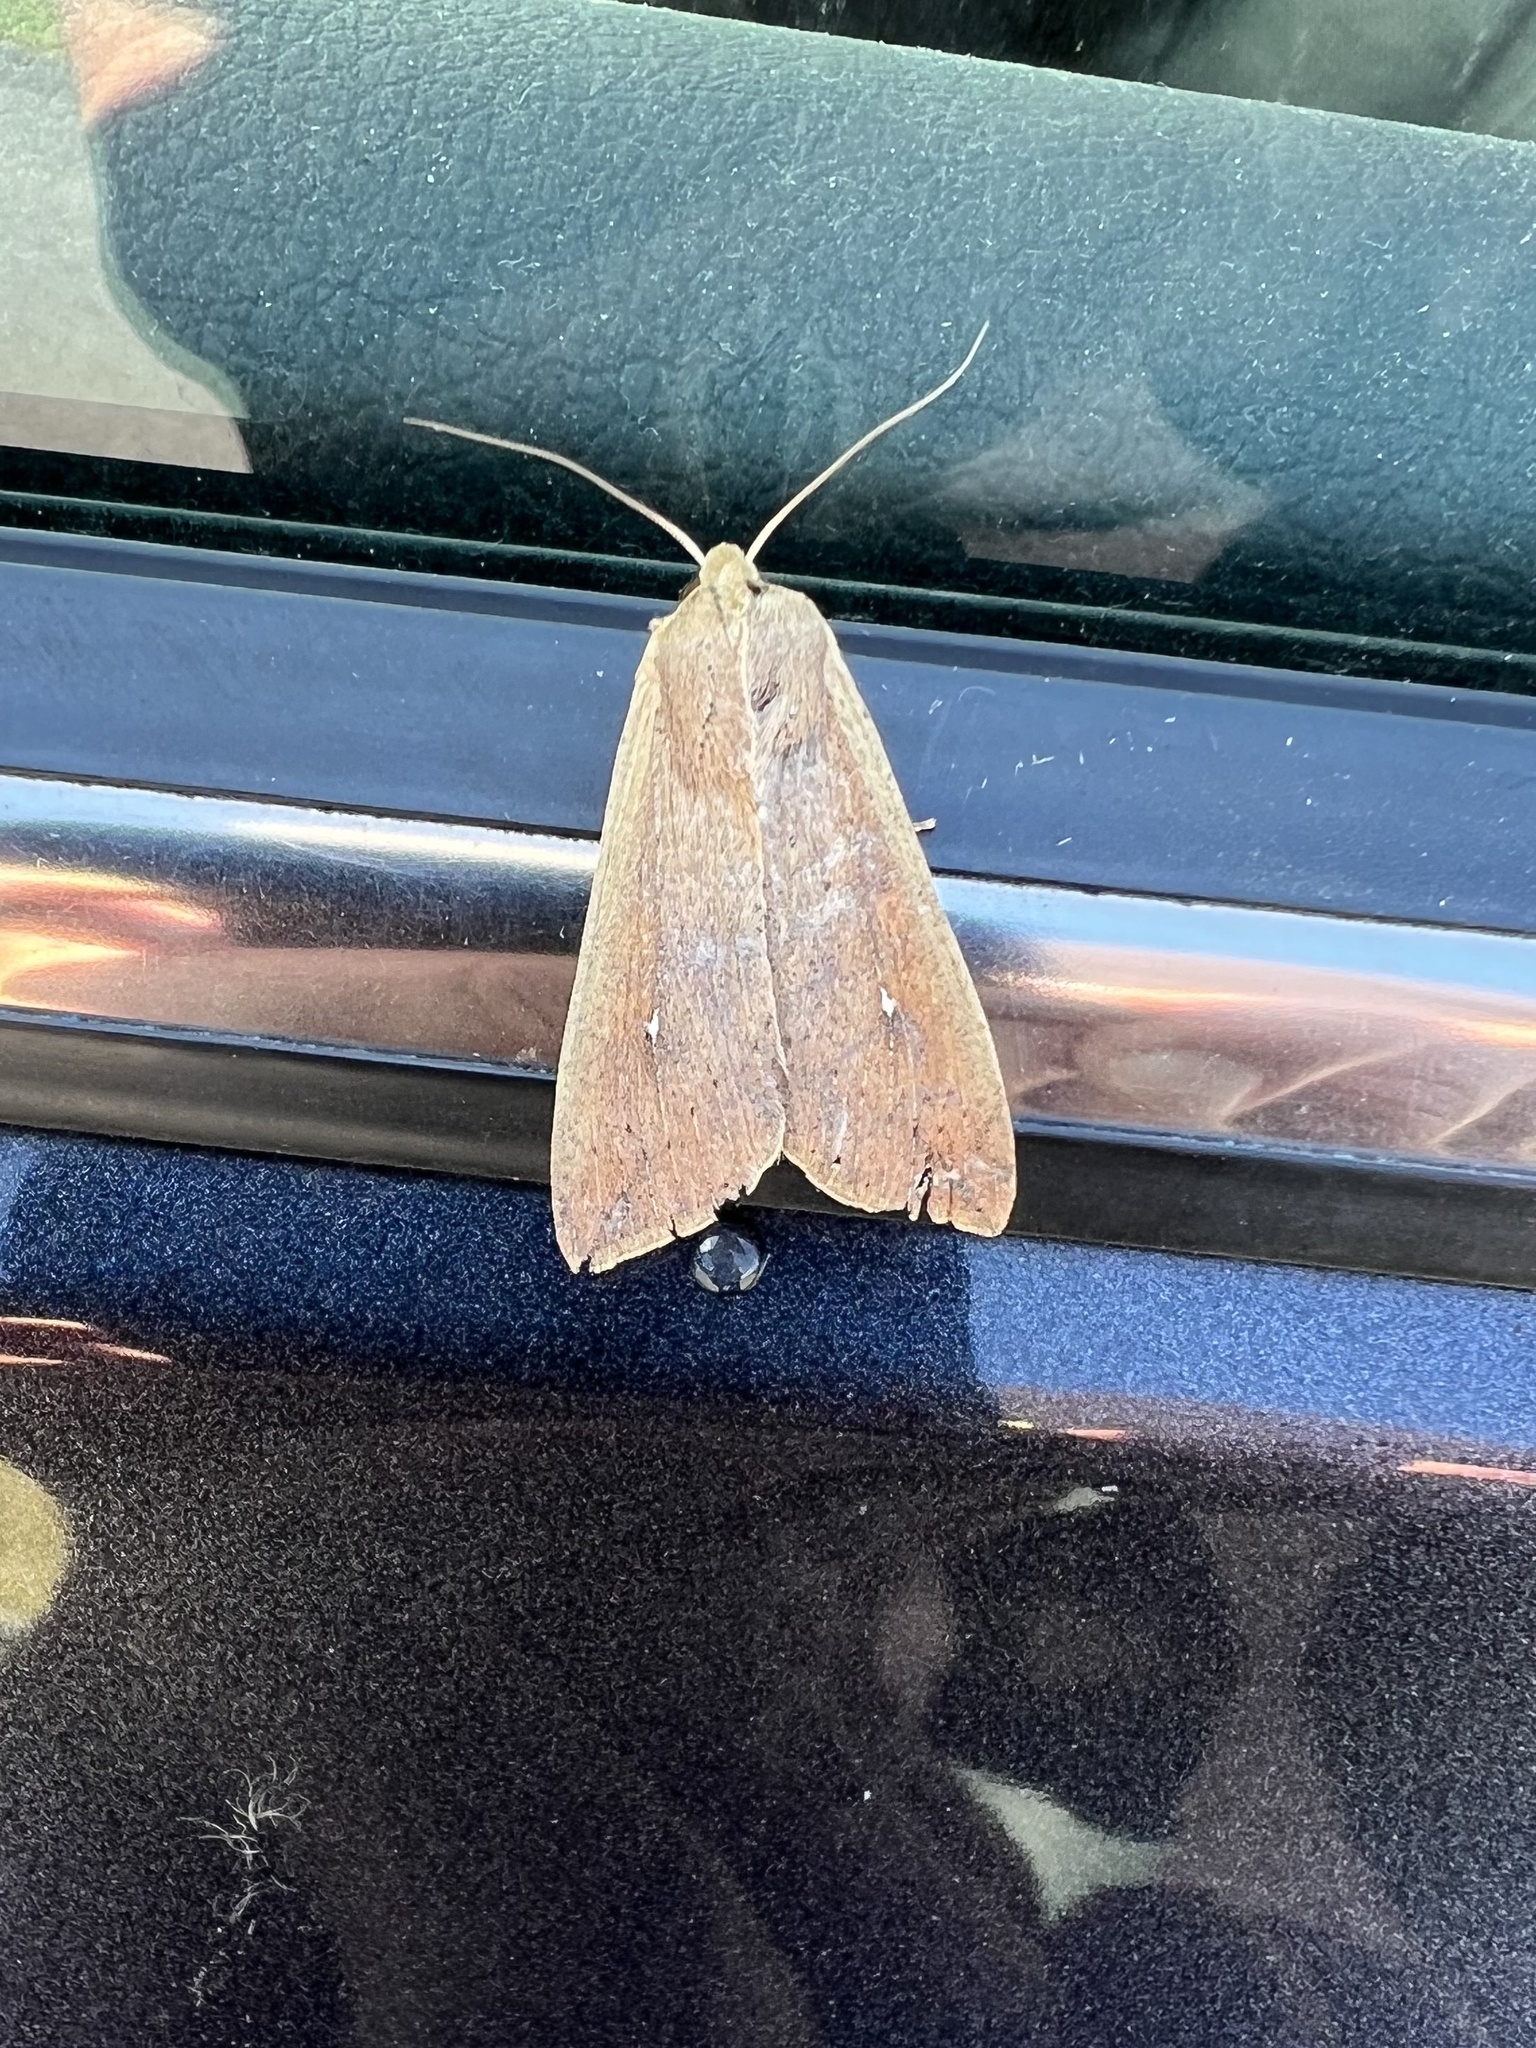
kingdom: Animalia
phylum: Arthropoda
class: Insecta
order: Lepidoptera
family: Noctuidae
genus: Mythimna
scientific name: Mythimna unipuncta
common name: White-speck
